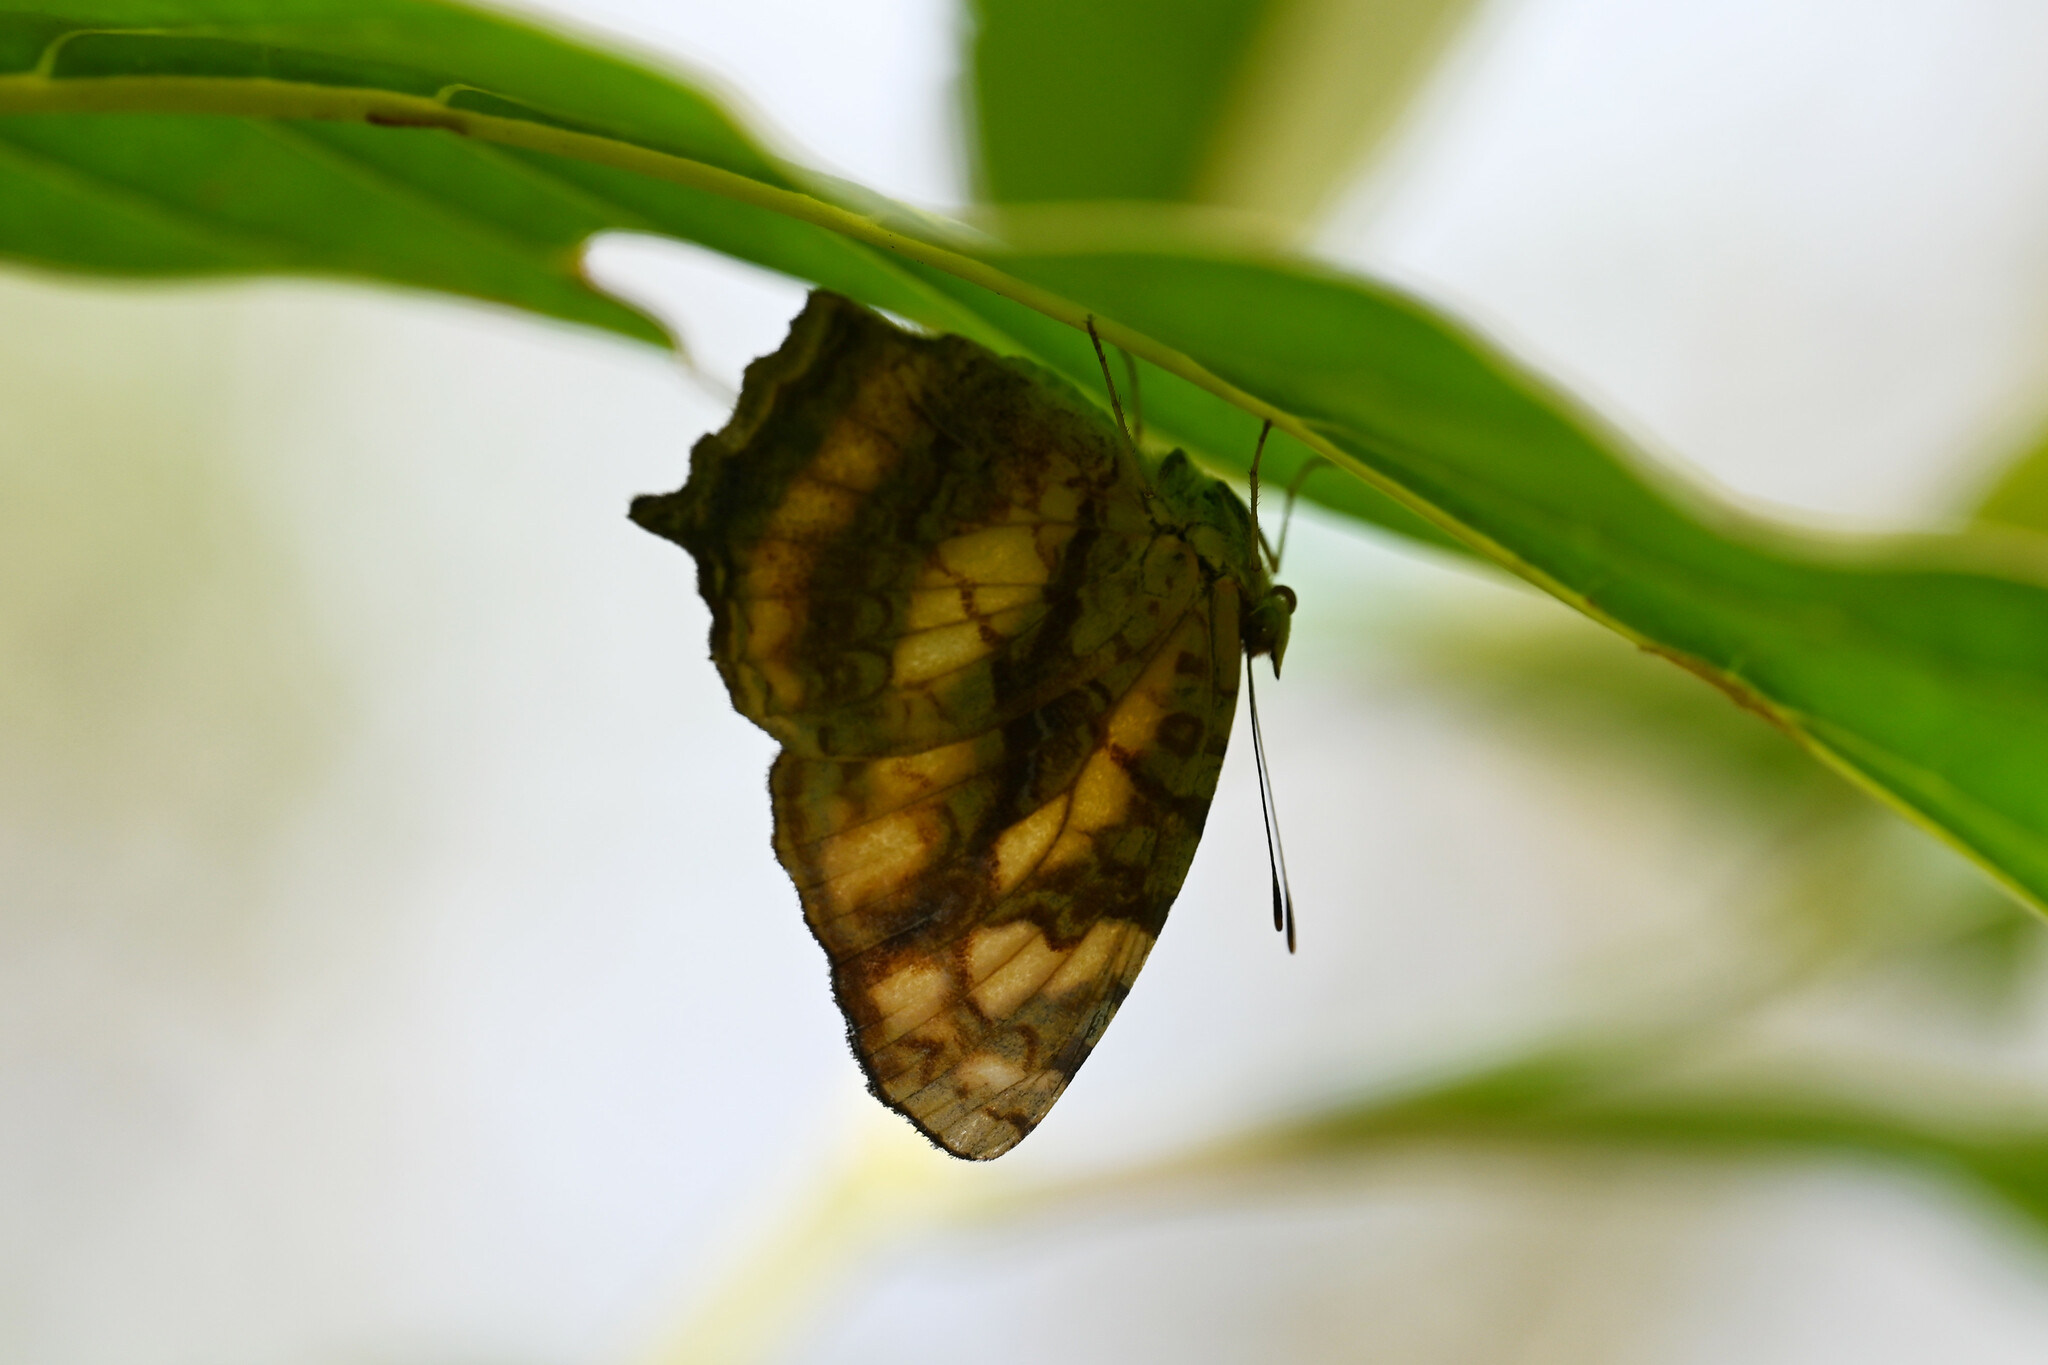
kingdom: Animalia
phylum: Arthropoda
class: Insecta
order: Lepidoptera
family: Nymphalidae
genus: Symbrenthia
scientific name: Symbrenthia hypselis
